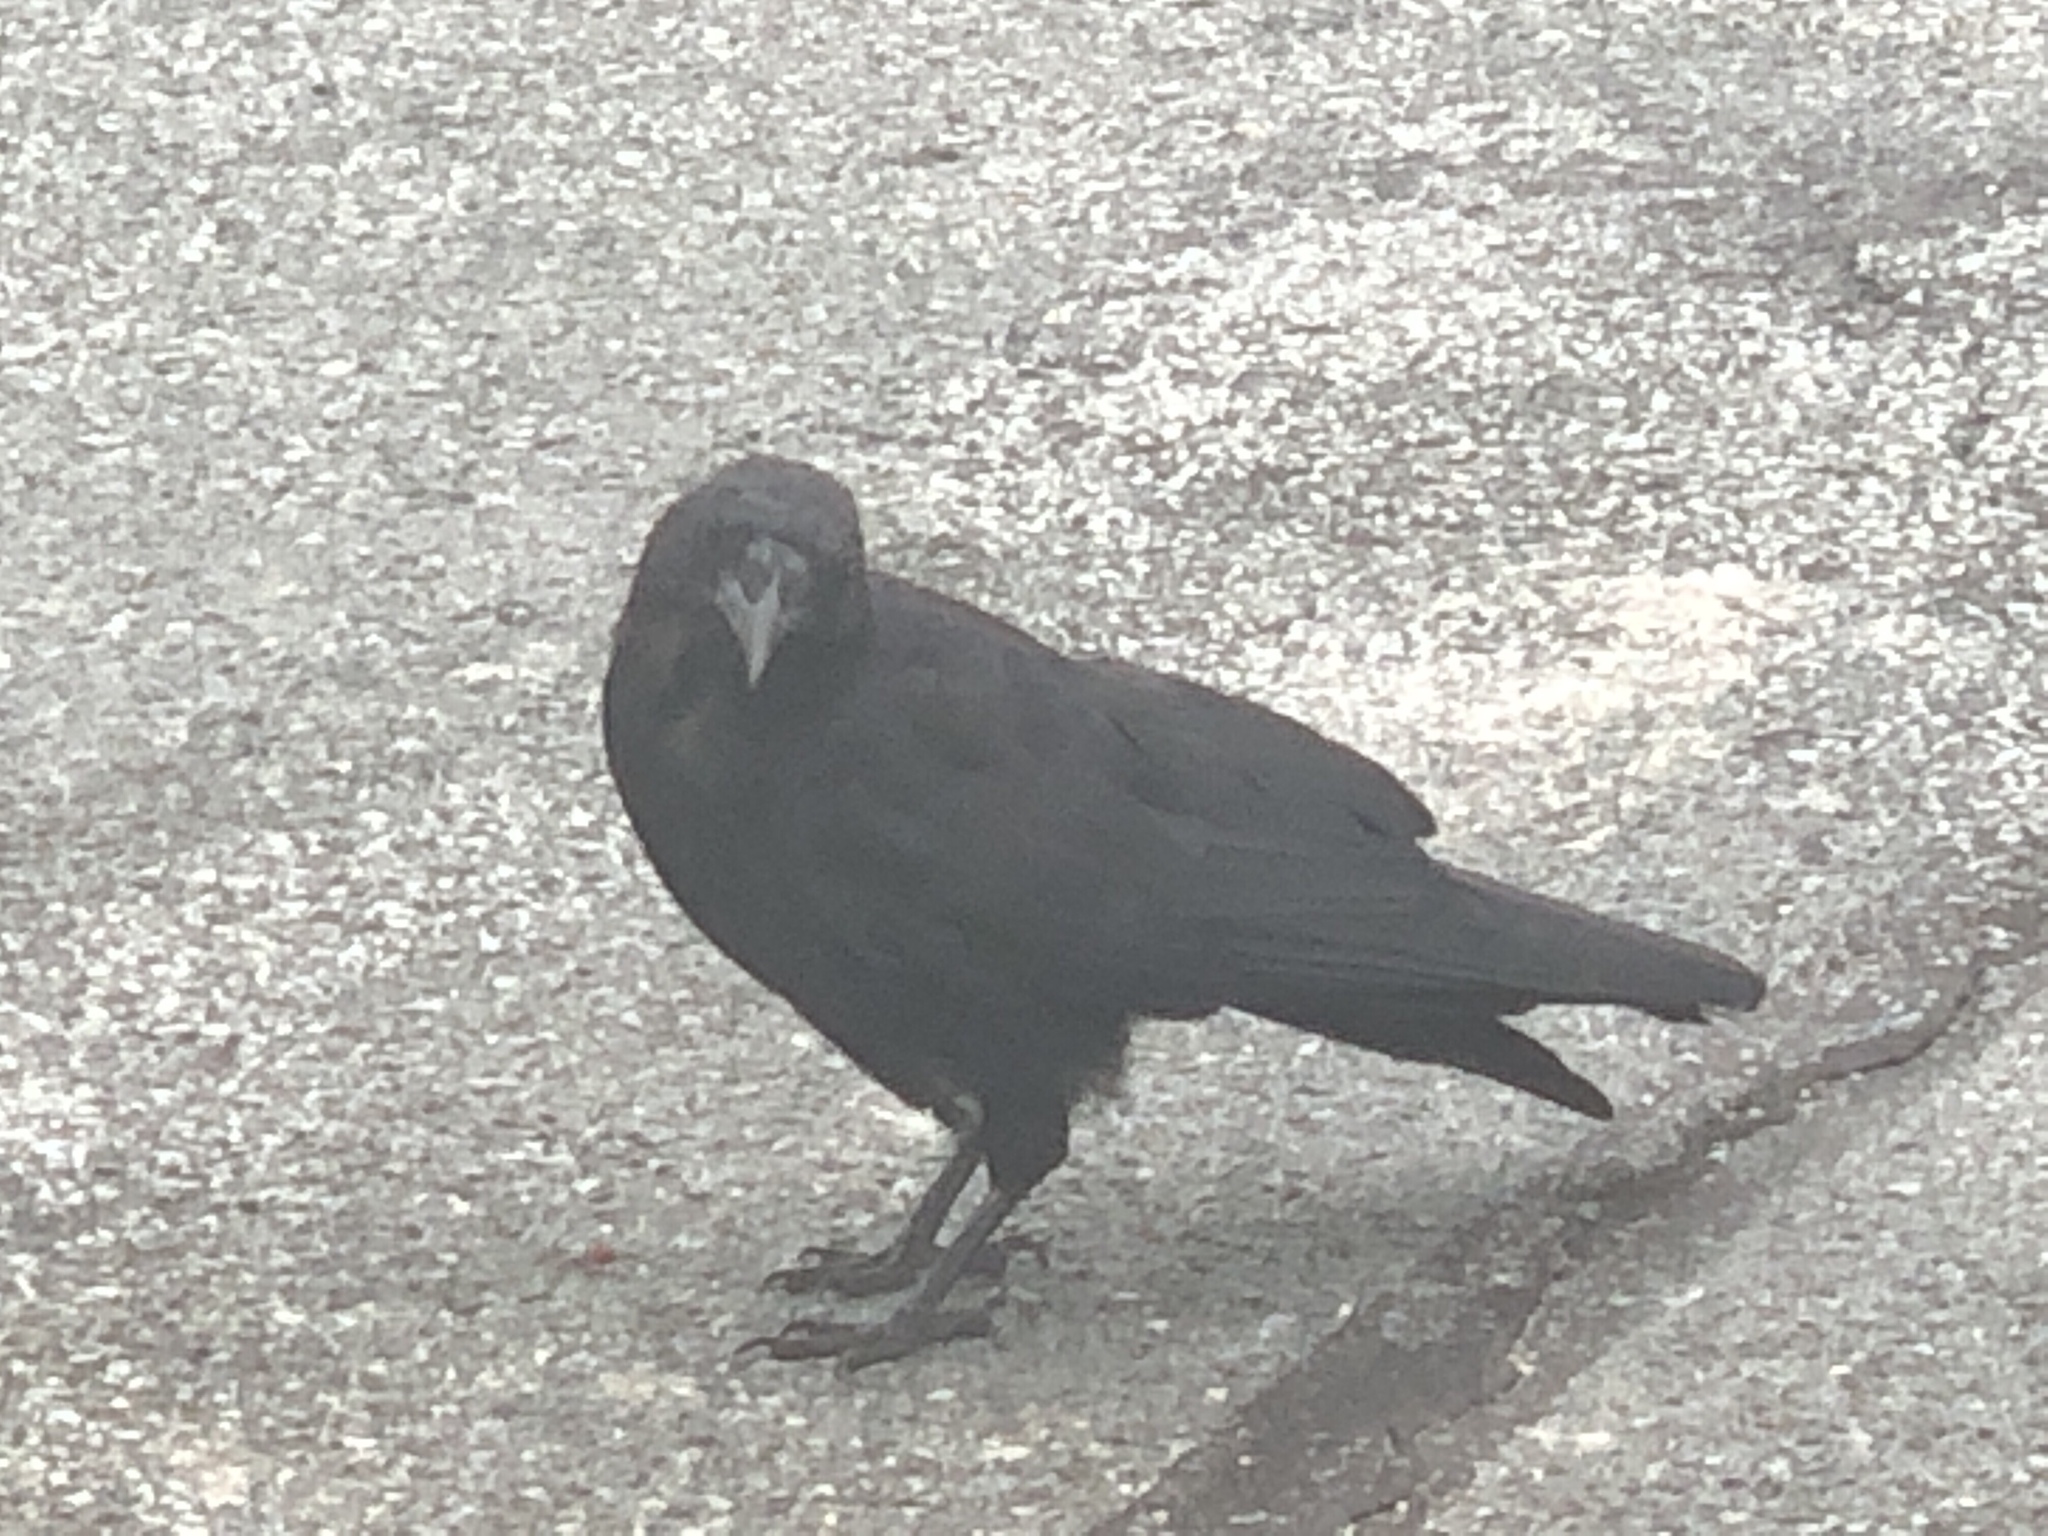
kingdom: Animalia
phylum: Chordata
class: Aves
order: Passeriformes
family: Corvidae
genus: Corvus
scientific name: Corvus brachyrhynchos
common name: American crow
